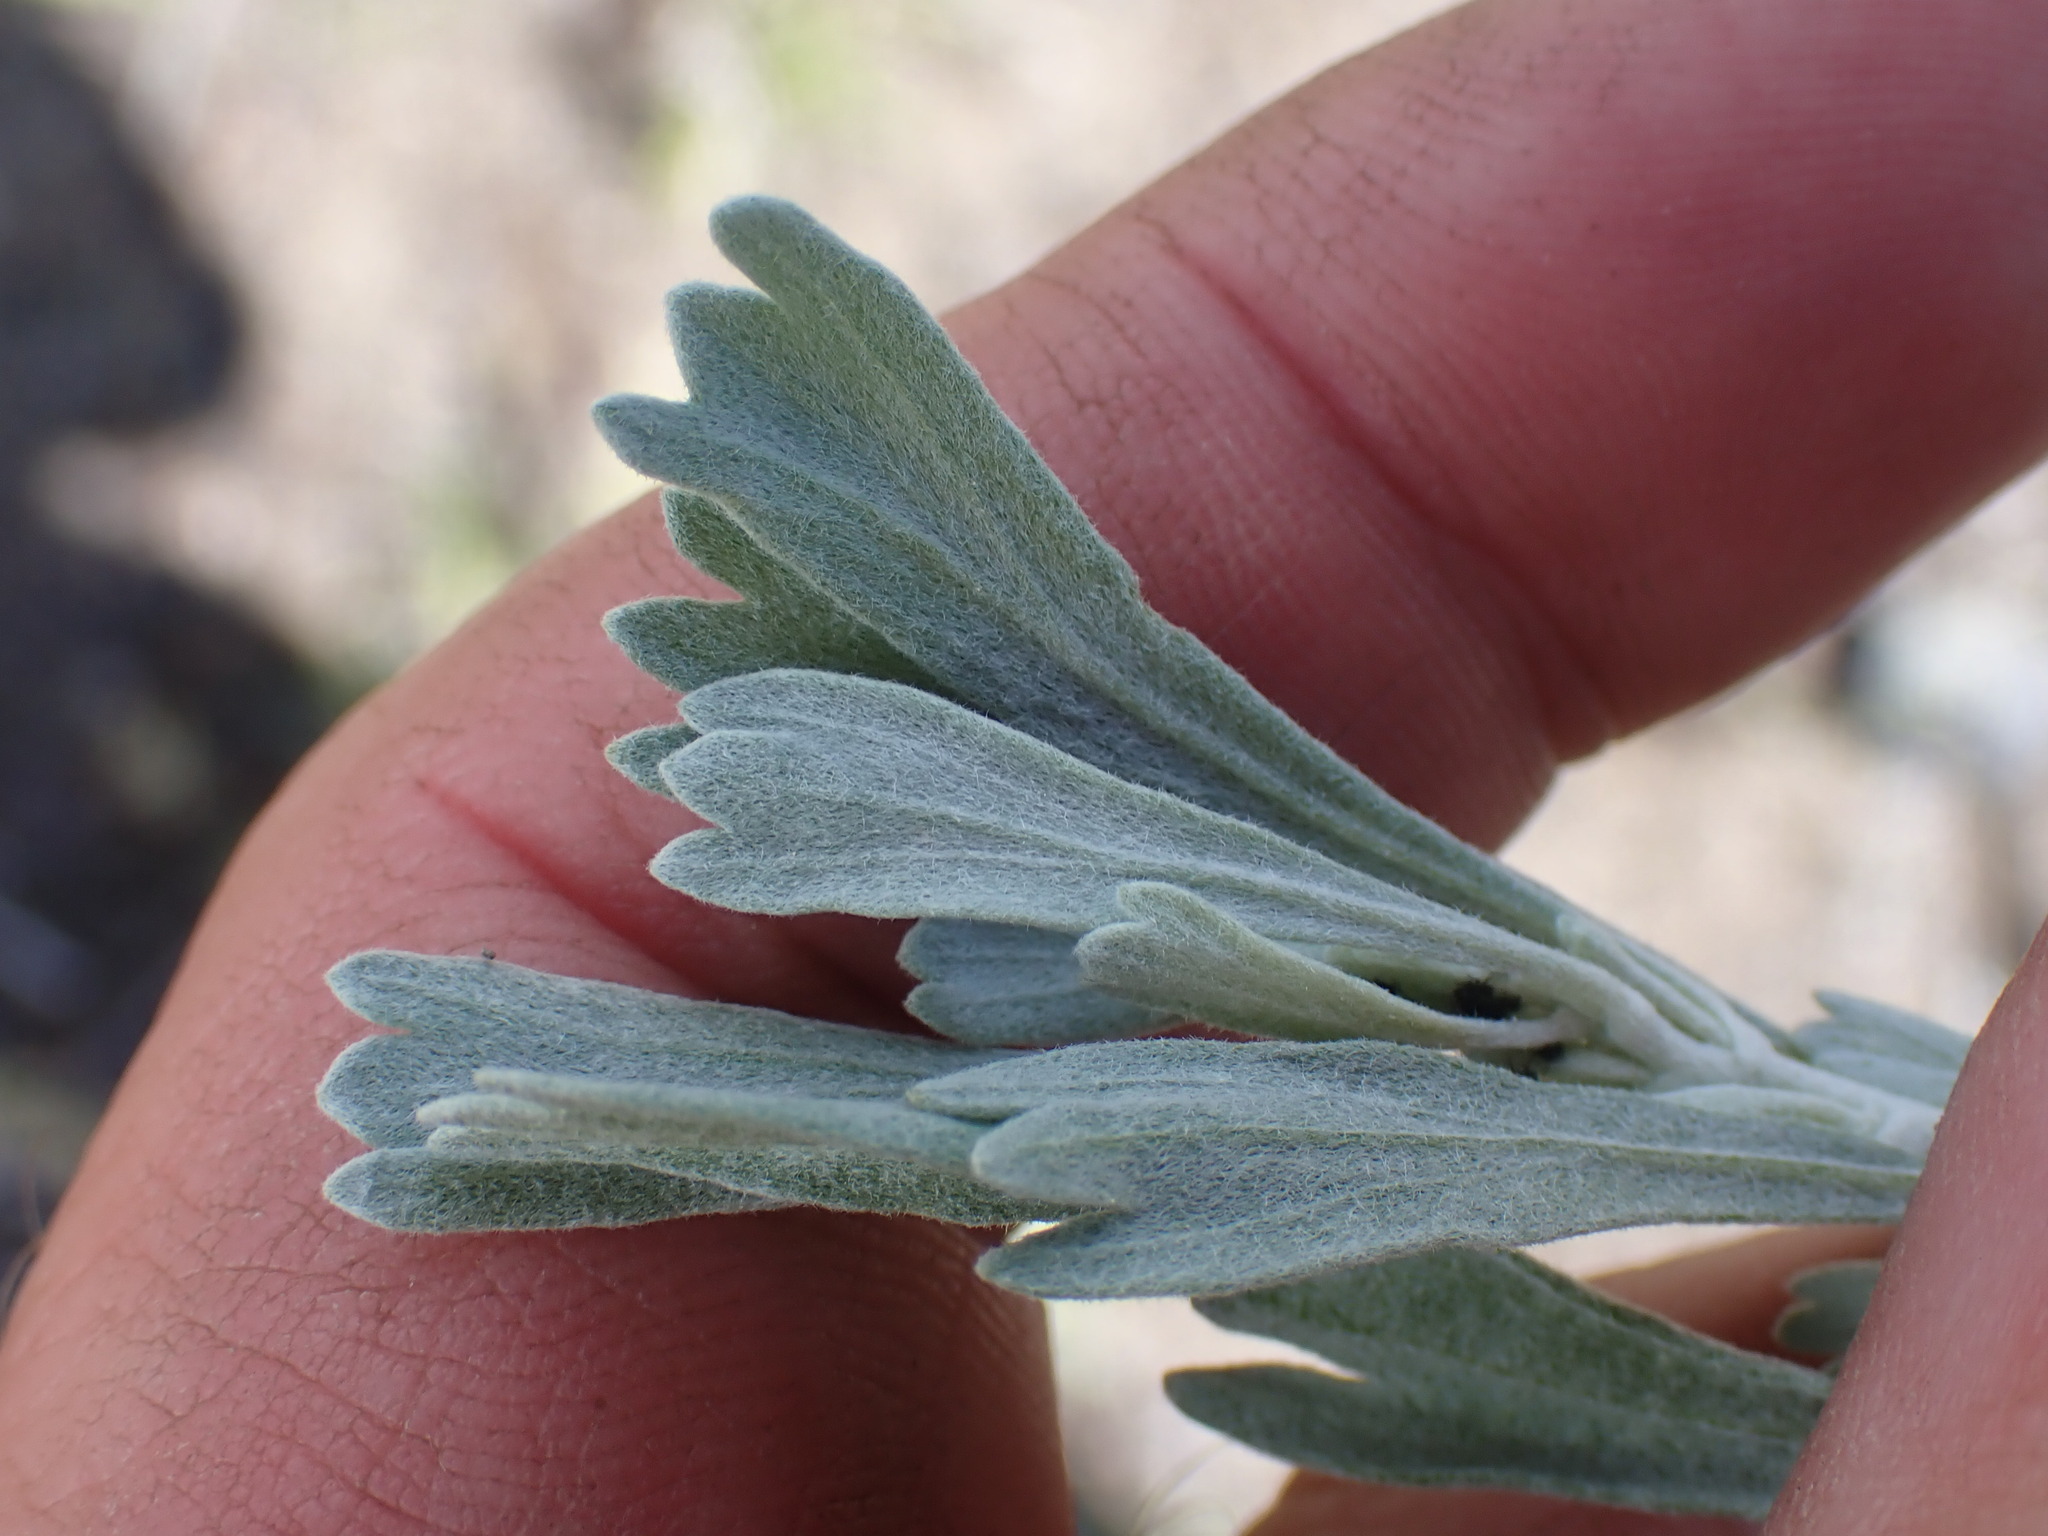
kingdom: Plantae
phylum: Tracheophyta
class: Magnoliopsida
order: Asterales
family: Asteraceae
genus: Artemisia
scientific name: Artemisia tridentata
